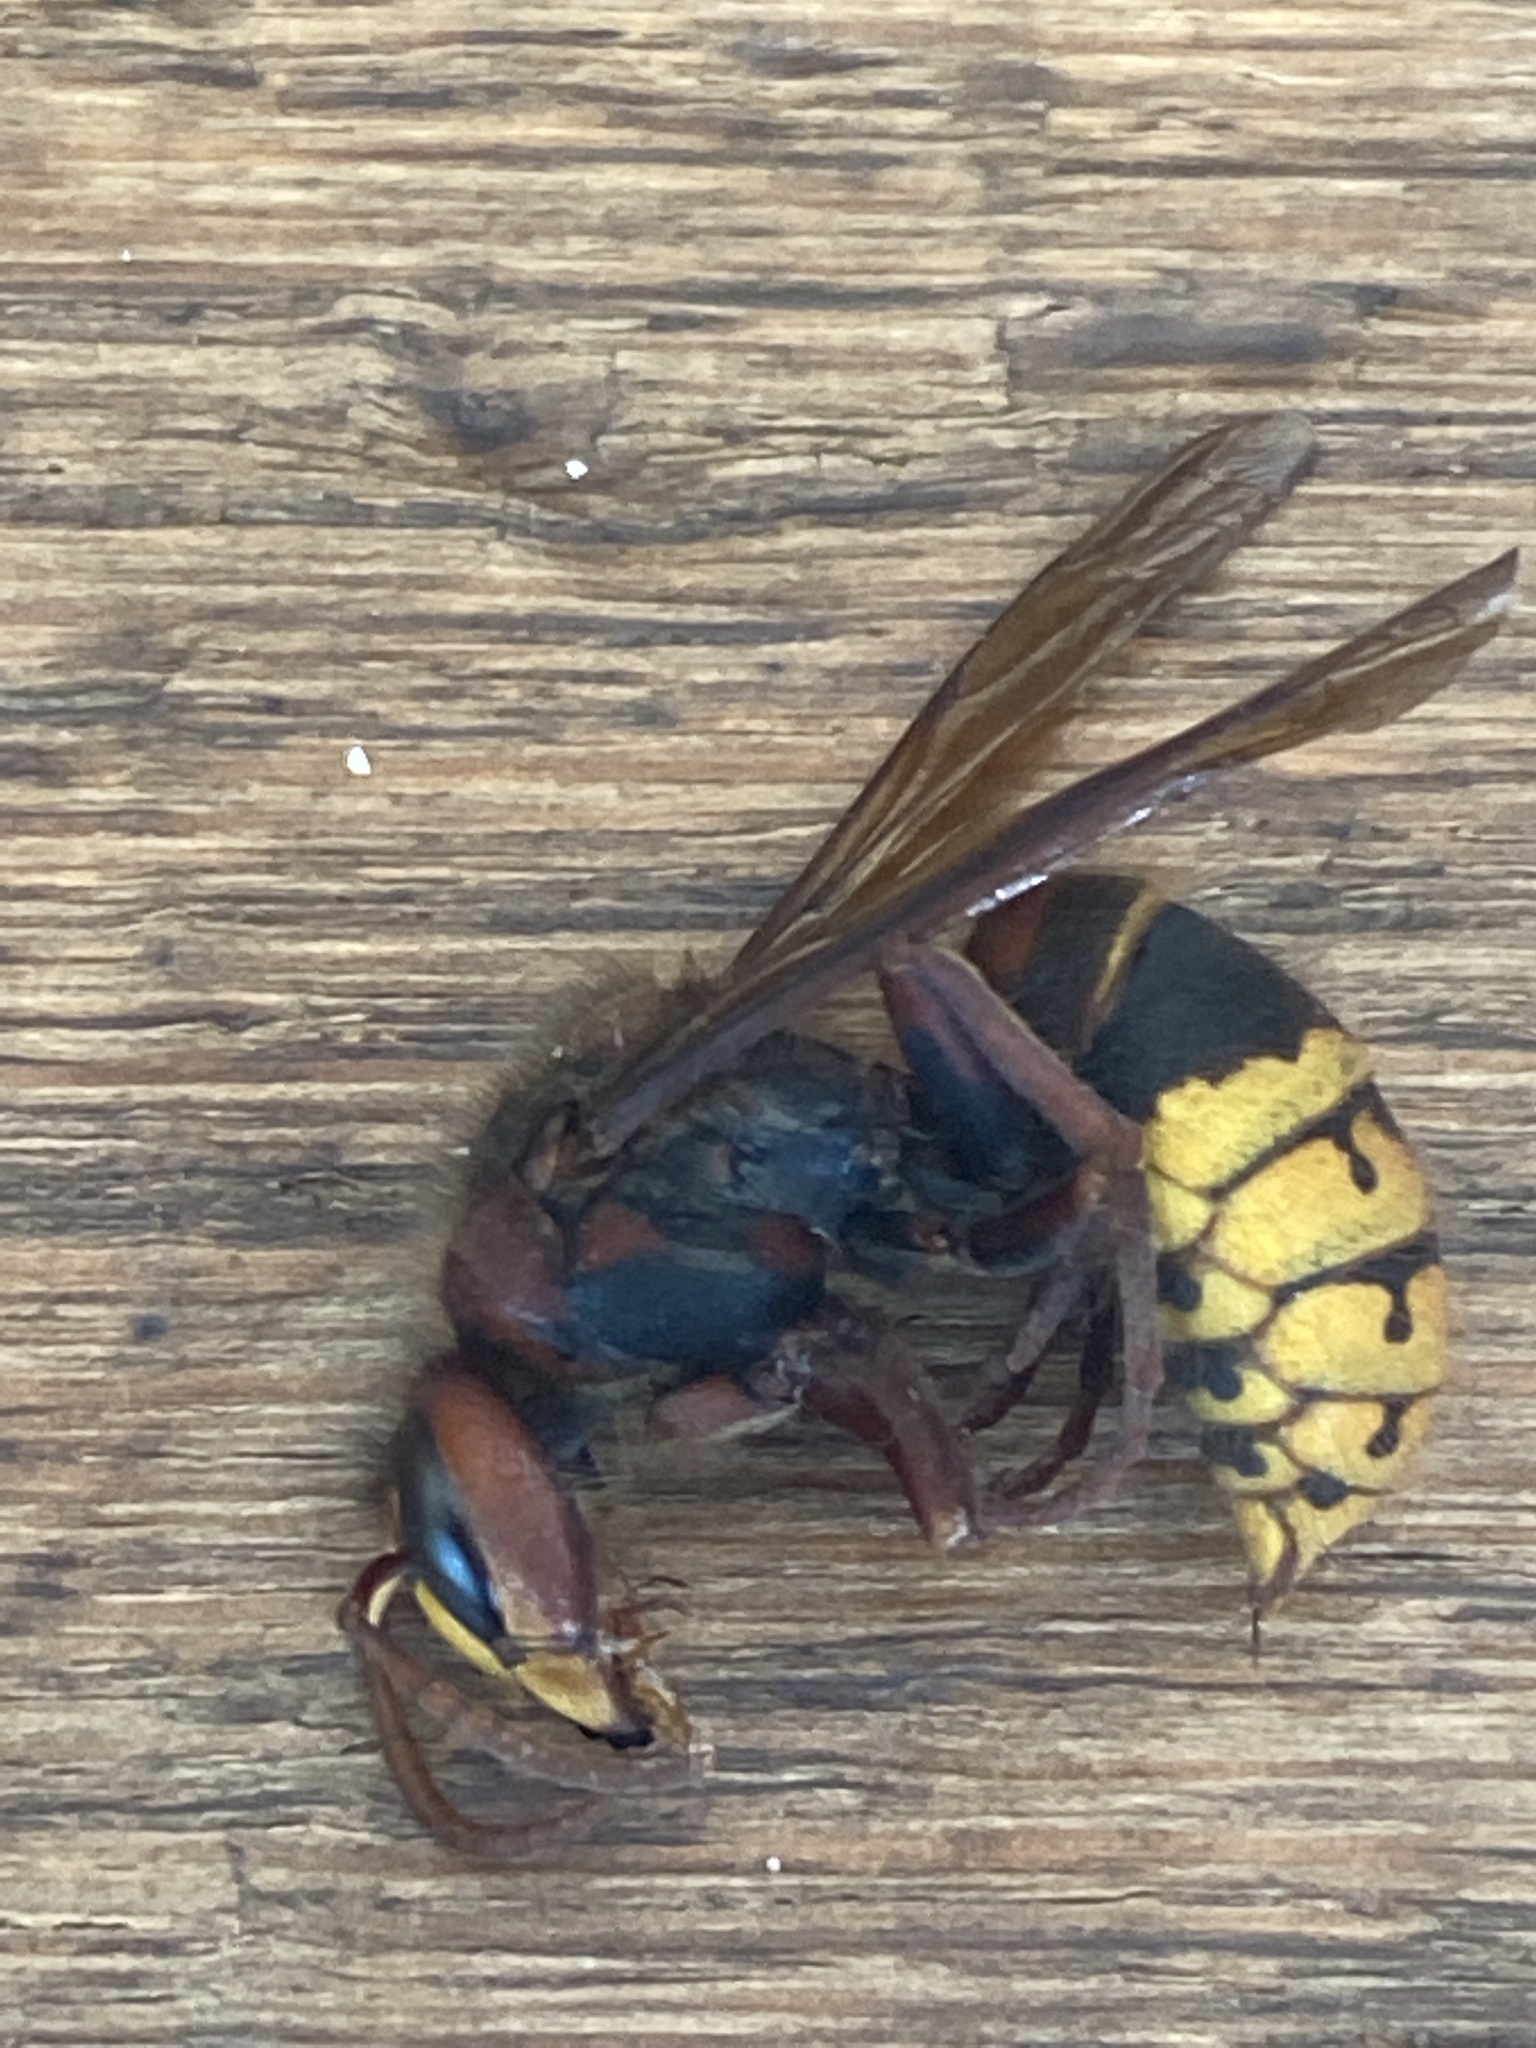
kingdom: Animalia
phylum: Arthropoda
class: Insecta
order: Hymenoptera
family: Vespidae
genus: Vespa
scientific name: Vespa crabro
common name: Hornet
